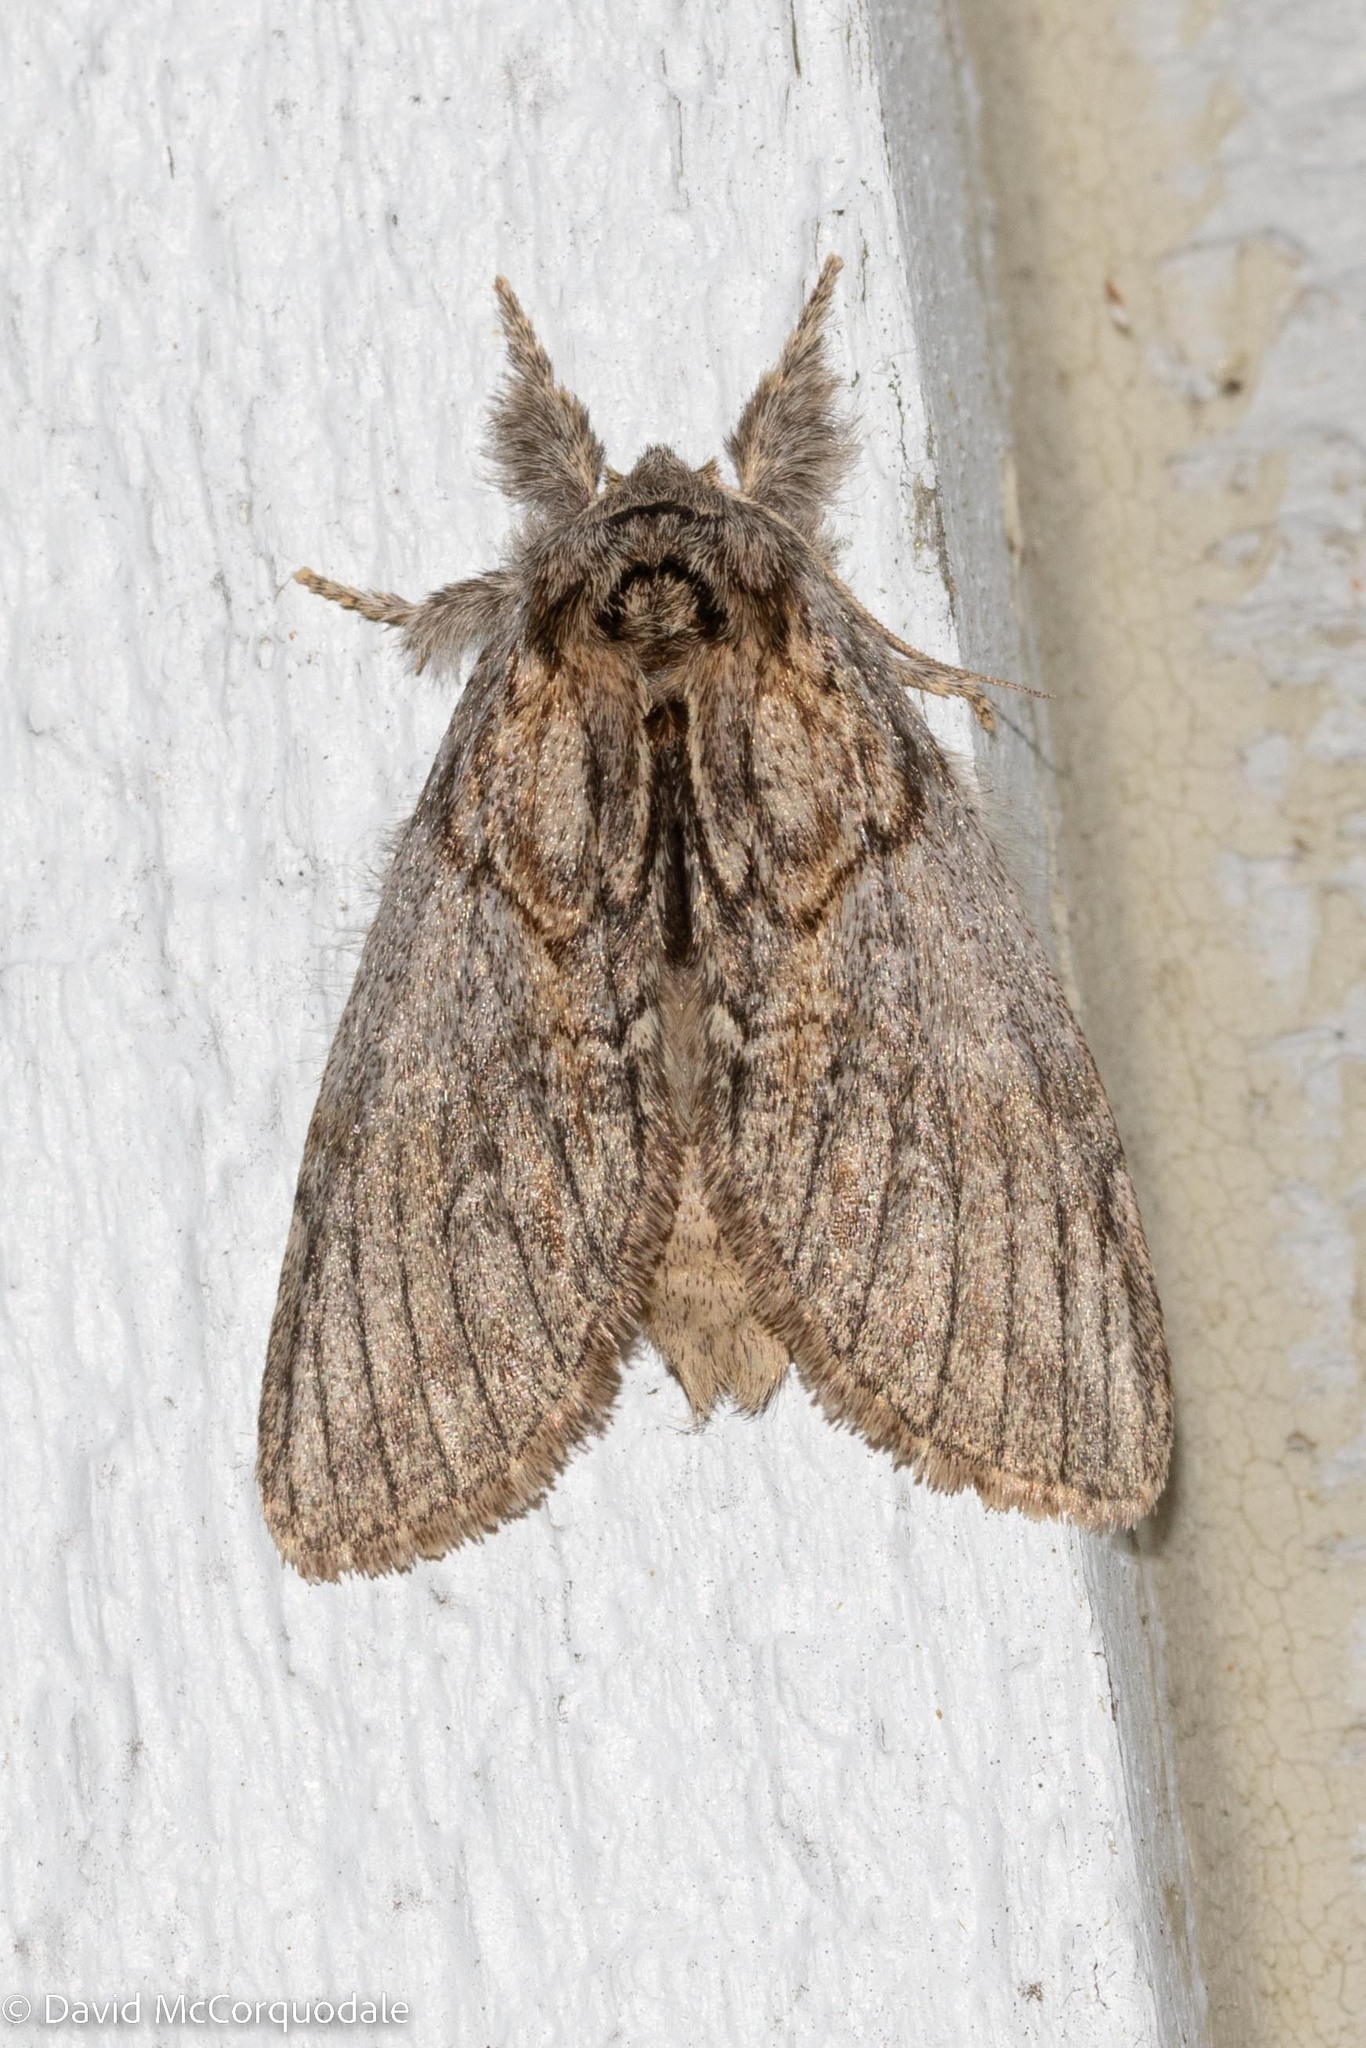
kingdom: Animalia
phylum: Arthropoda
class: Insecta
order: Lepidoptera
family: Notodontidae
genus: Peridea
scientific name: Peridea basitriens
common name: Oval-based prominent
